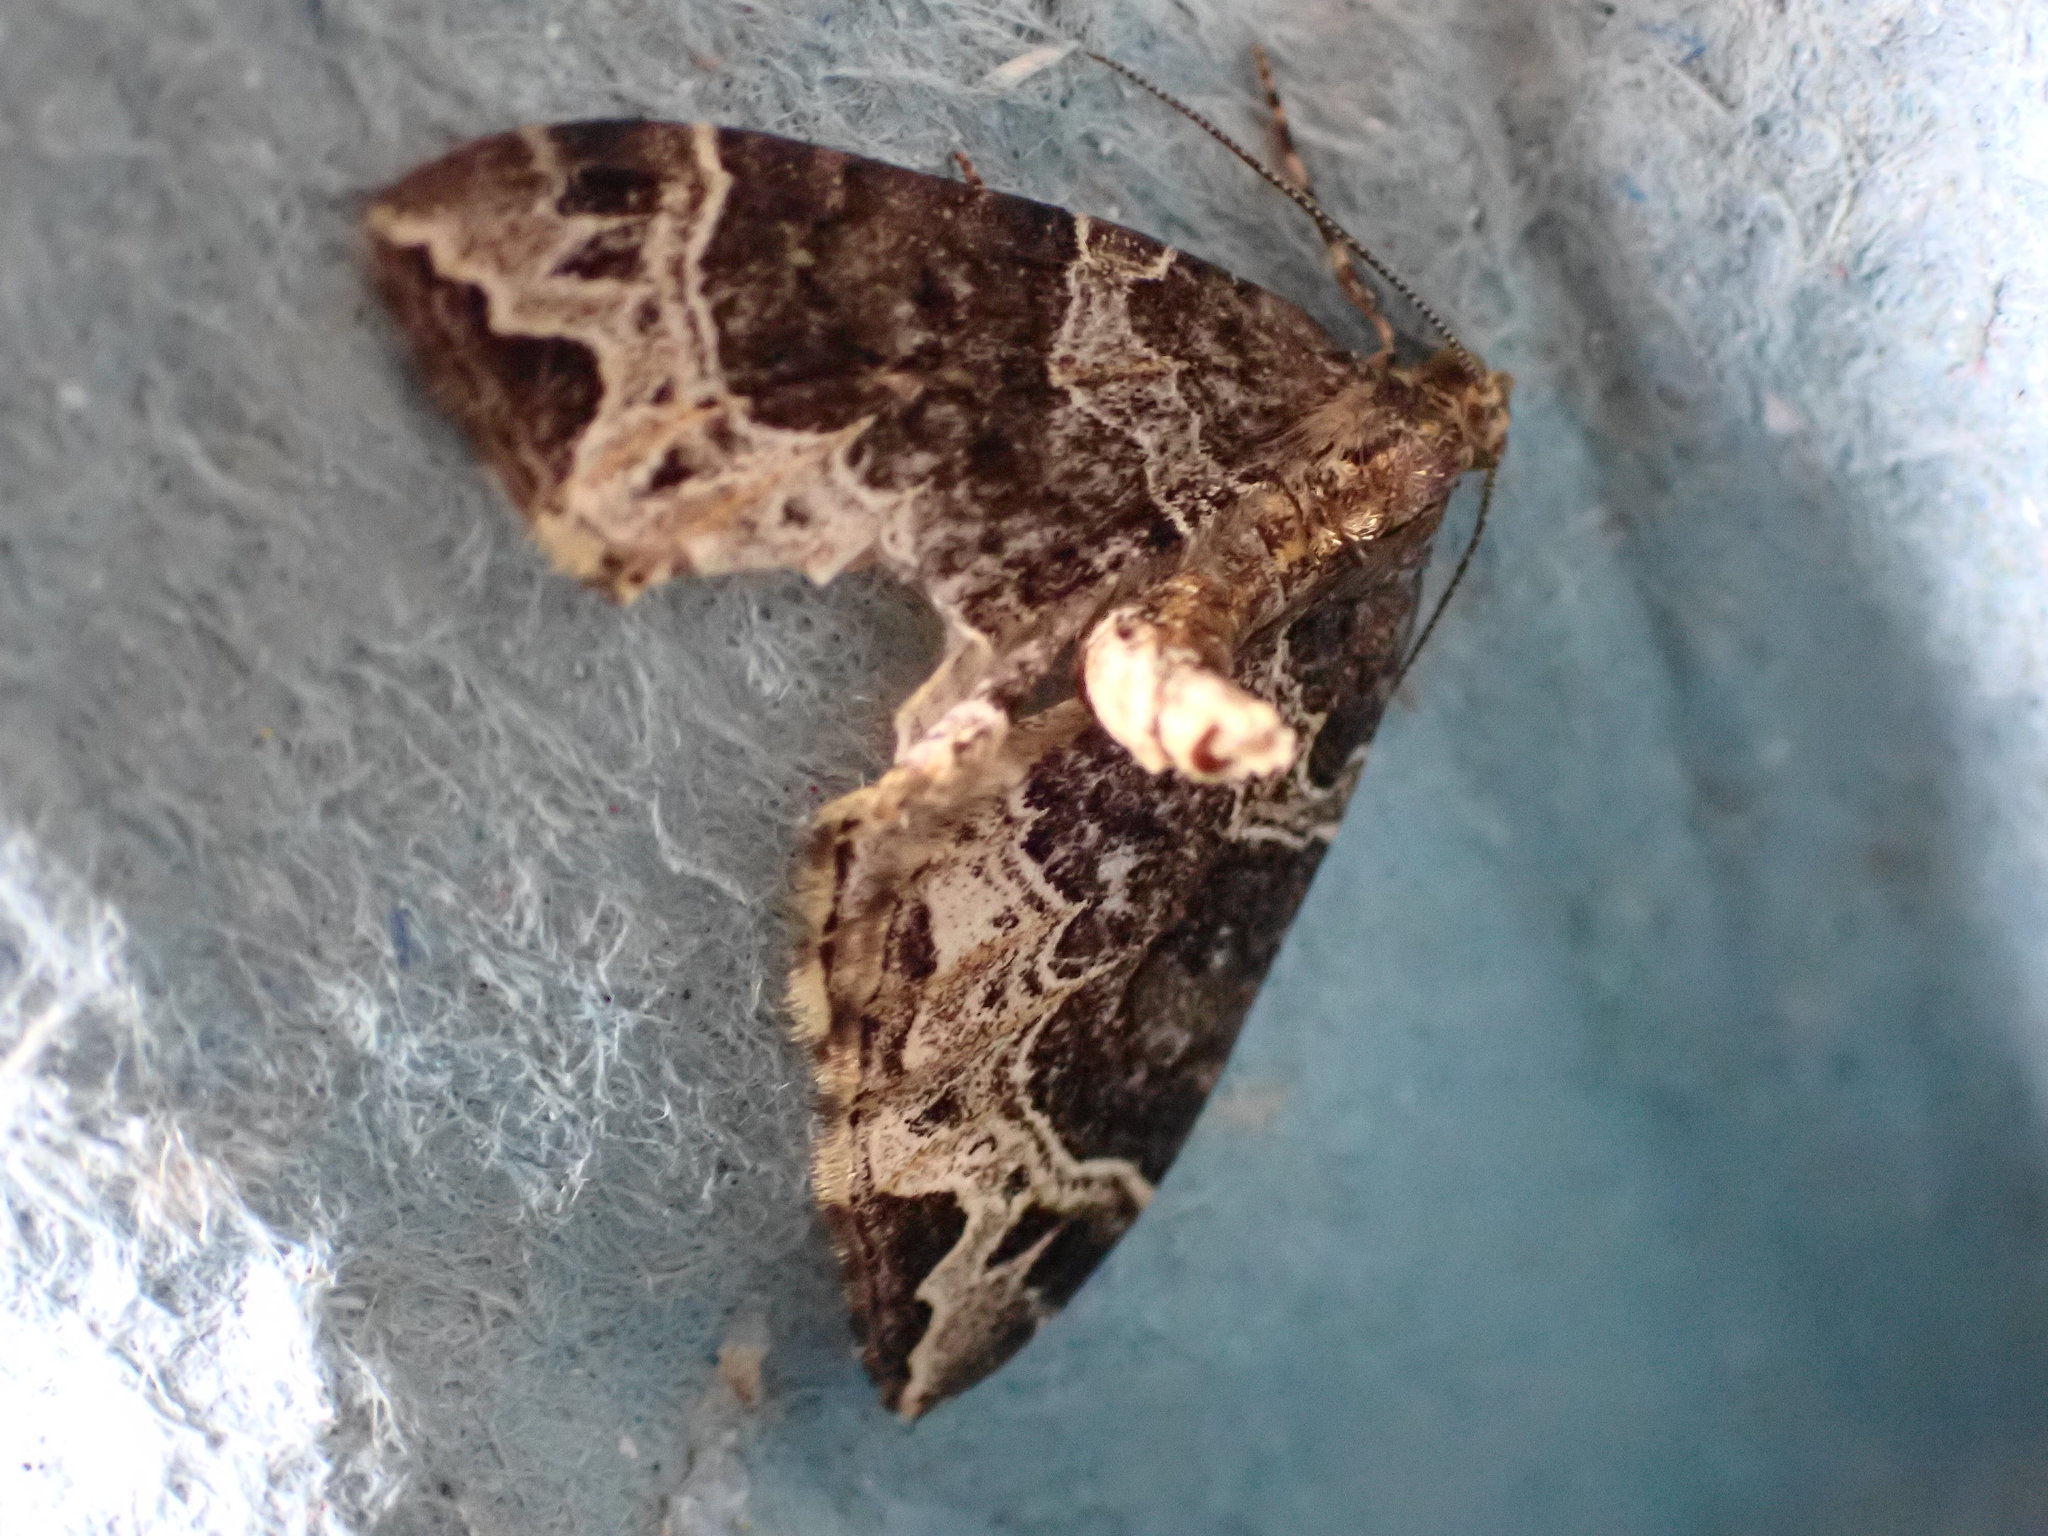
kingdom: Animalia
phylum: Arthropoda
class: Insecta
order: Lepidoptera
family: Geometridae
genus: Ecliptopera
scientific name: Ecliptopera silaceata
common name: Small phoenix
